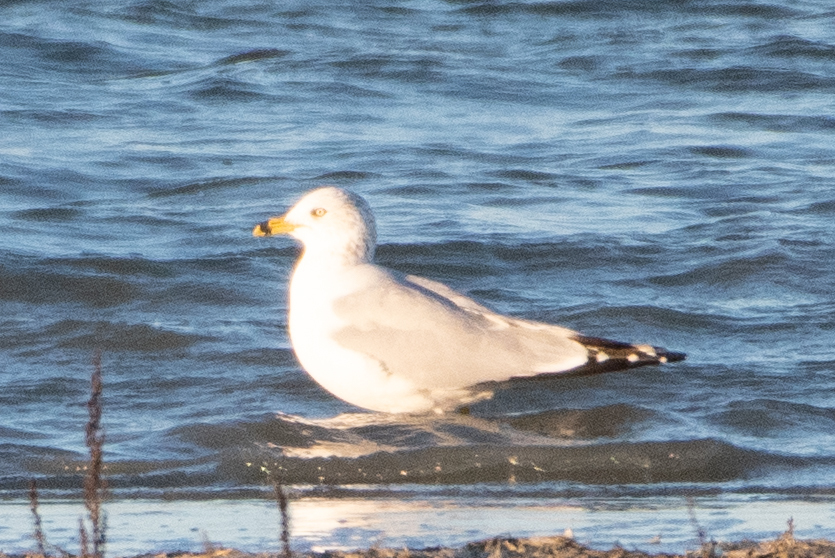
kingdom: Animalia
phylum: Chordata
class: Aves
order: Charadriiformes
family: Laridae
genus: Larus
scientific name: Larus delawarensis
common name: Ring-billed gull
